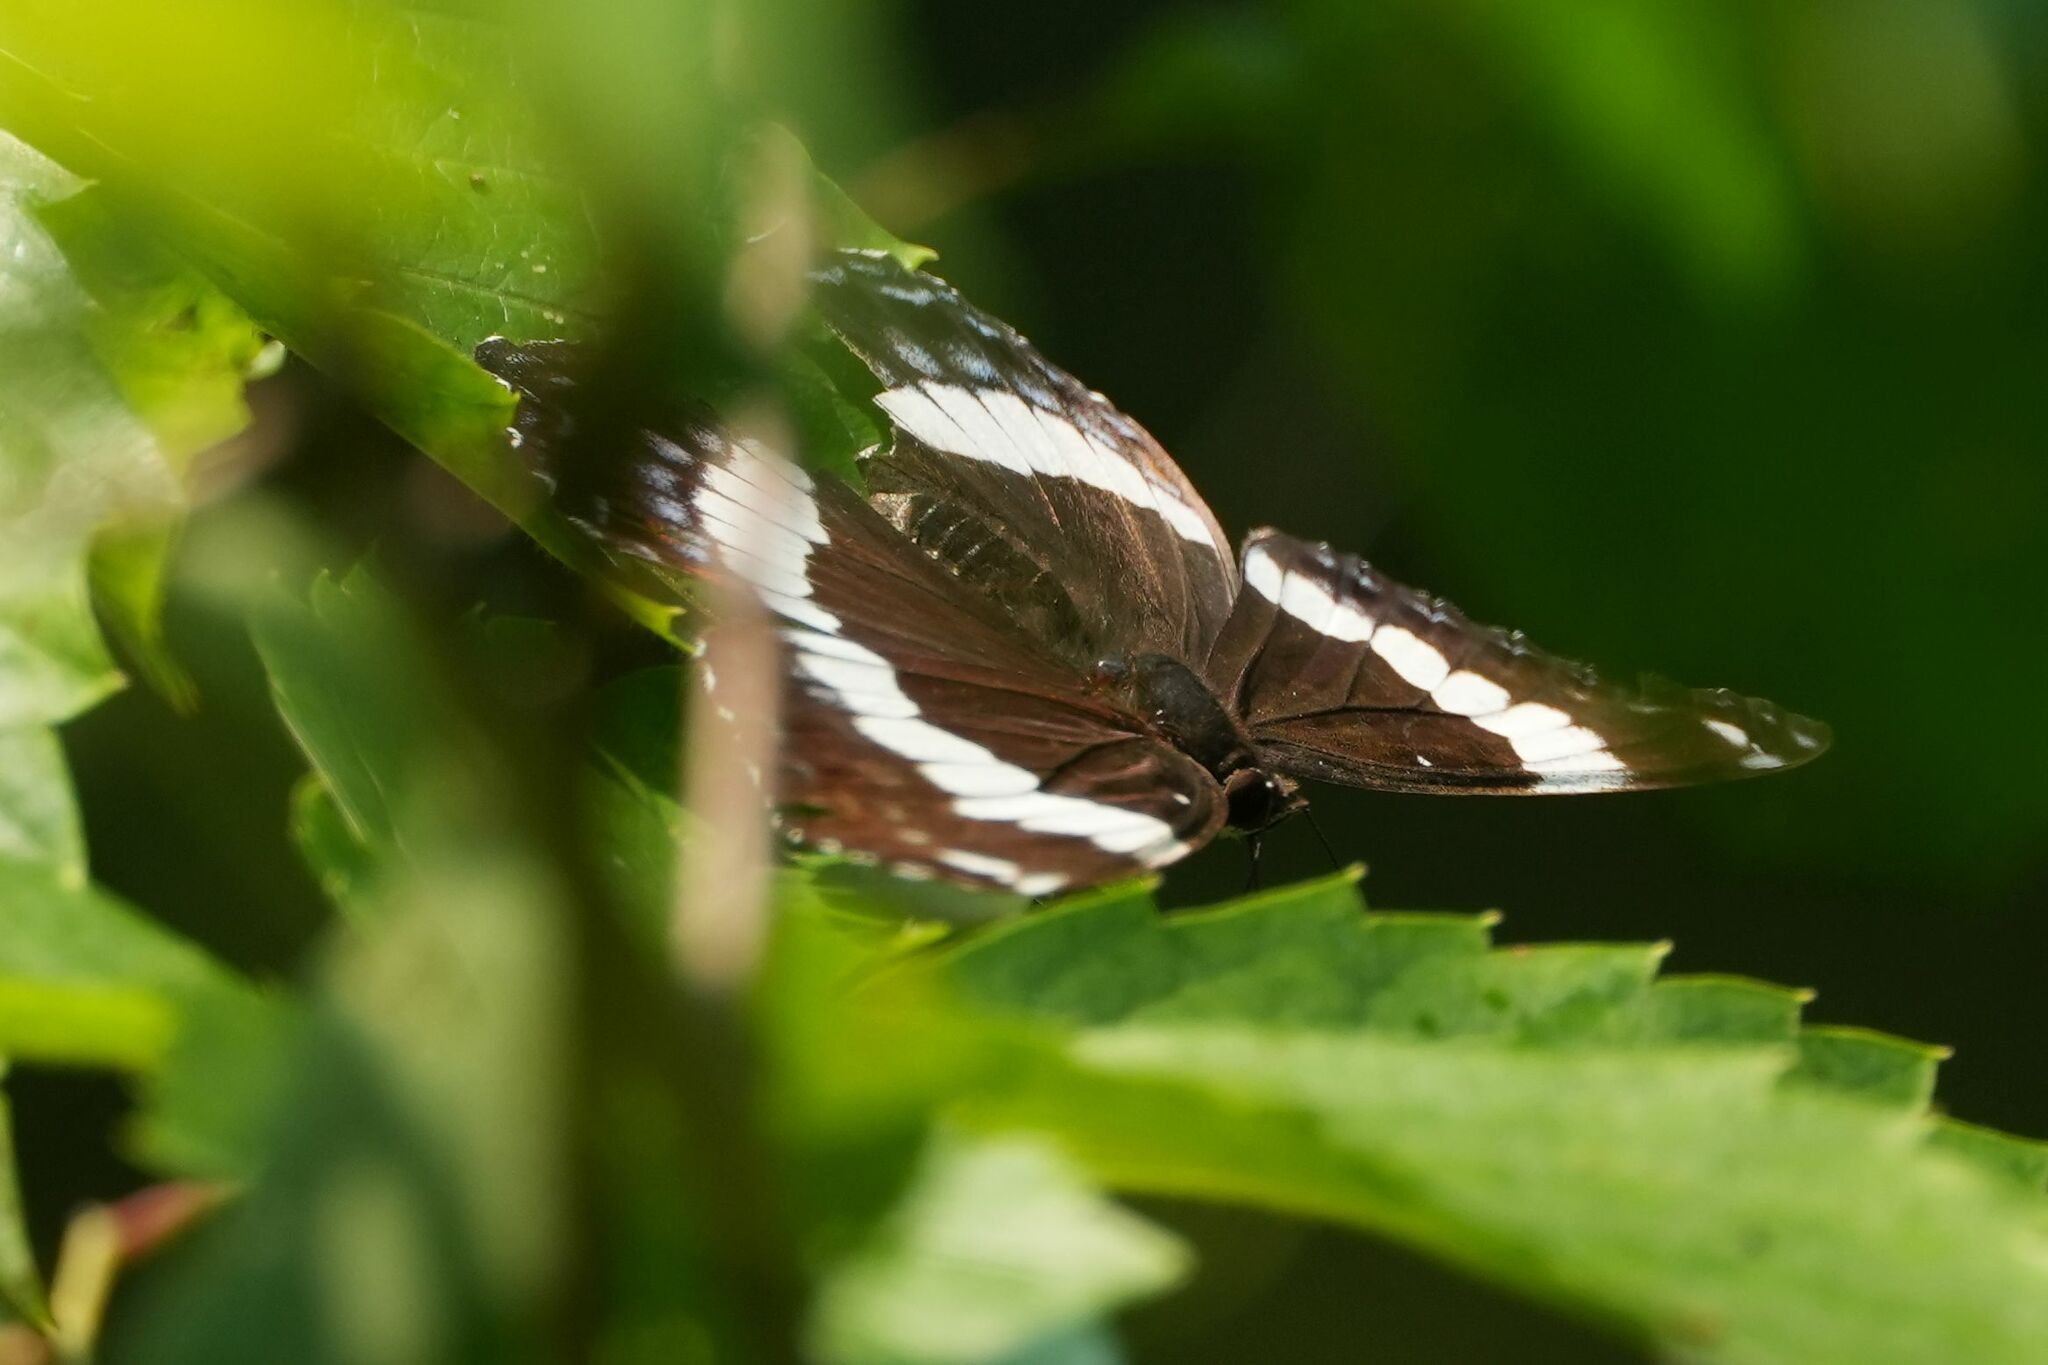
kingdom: Animalia
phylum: Arthropoda
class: Insecta
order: Lepidoptera
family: Nymphalidae
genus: Limenitis
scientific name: Limenitis arthemis
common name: Red-spotted admiral
